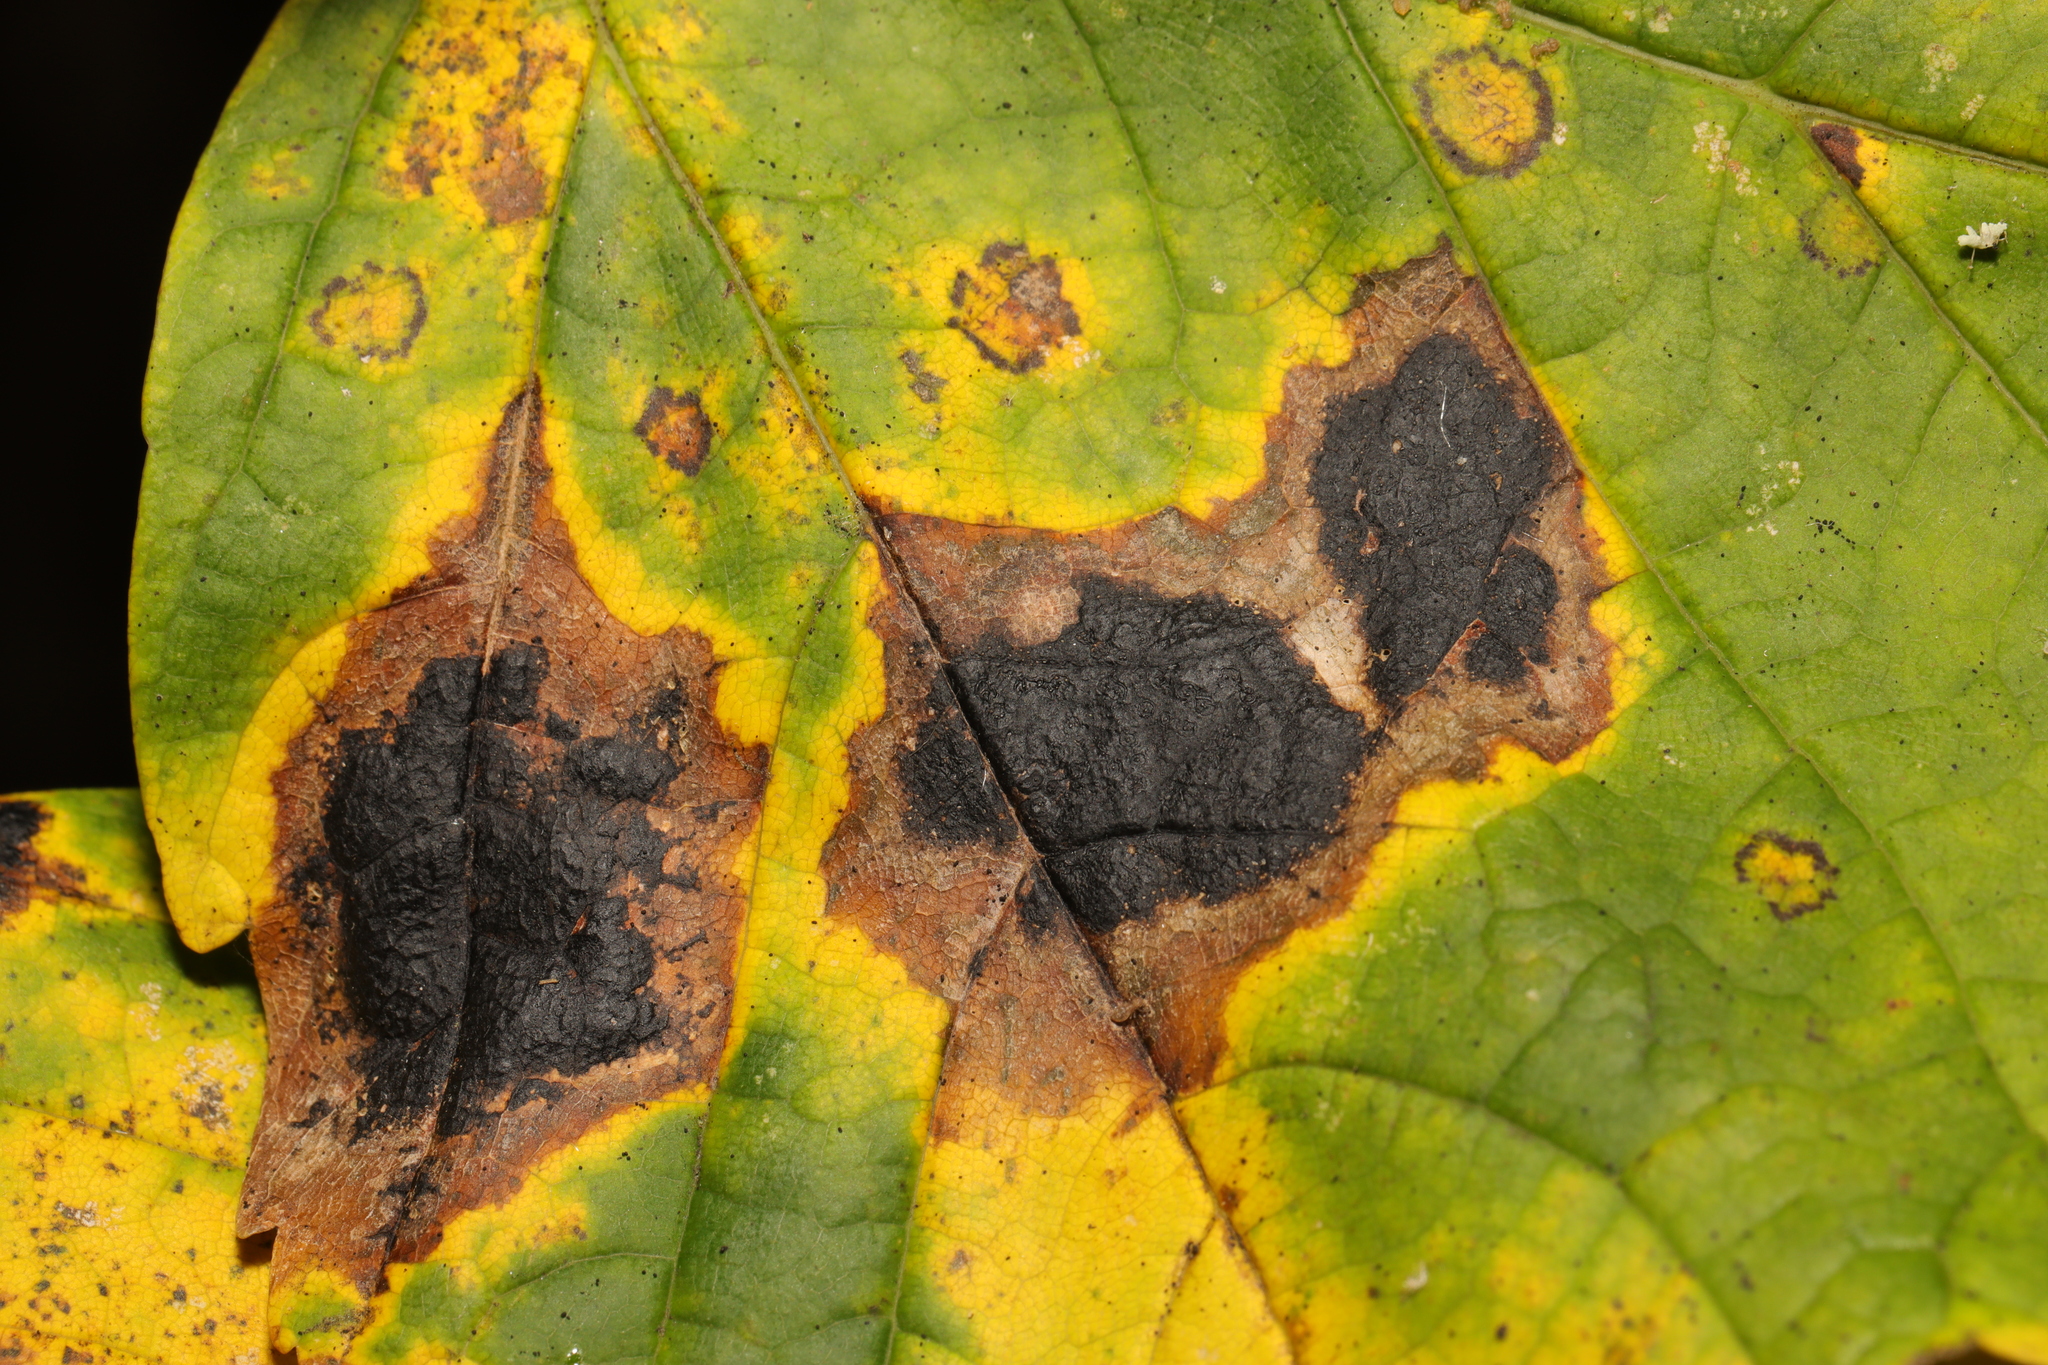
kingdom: Fungi
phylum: Ascomycota
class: Leotiomycetes
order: Rhytismatales
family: Rhytismataceae
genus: Rhytisma
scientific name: Rhytisma acerinum
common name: European tar spot
